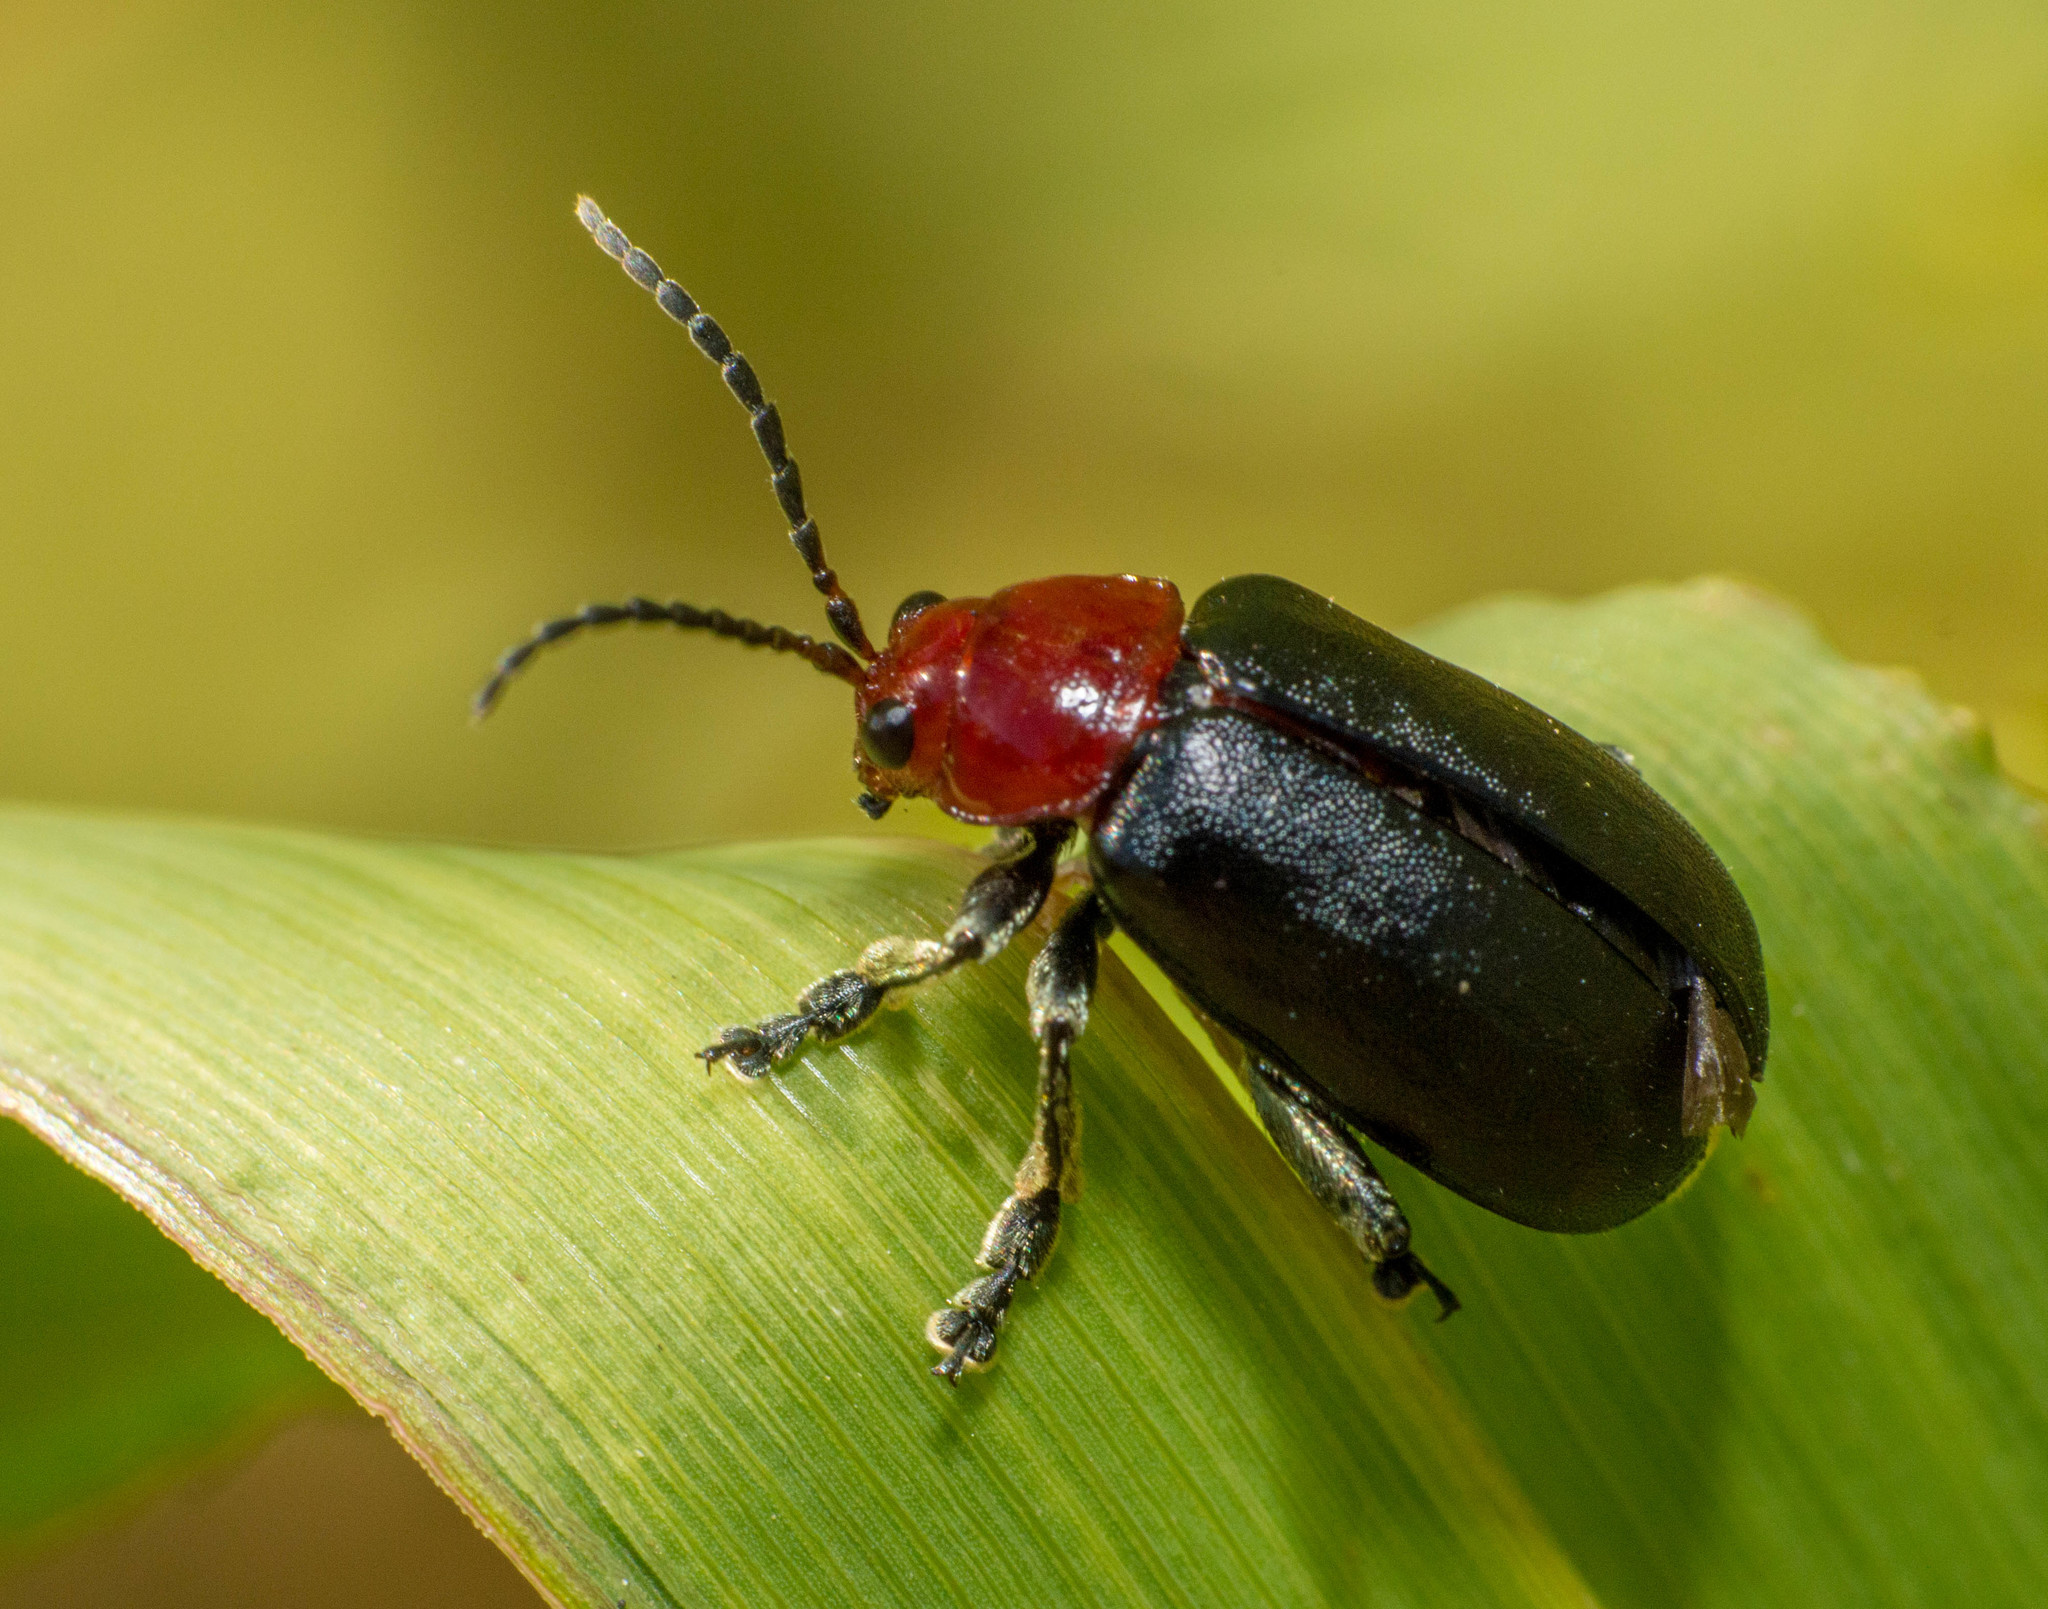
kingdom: Animalia
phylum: Arthropoda
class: Insecta
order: Coleoptera
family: Chrysomelidae
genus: Cacoscelis
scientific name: Cacoscelis
